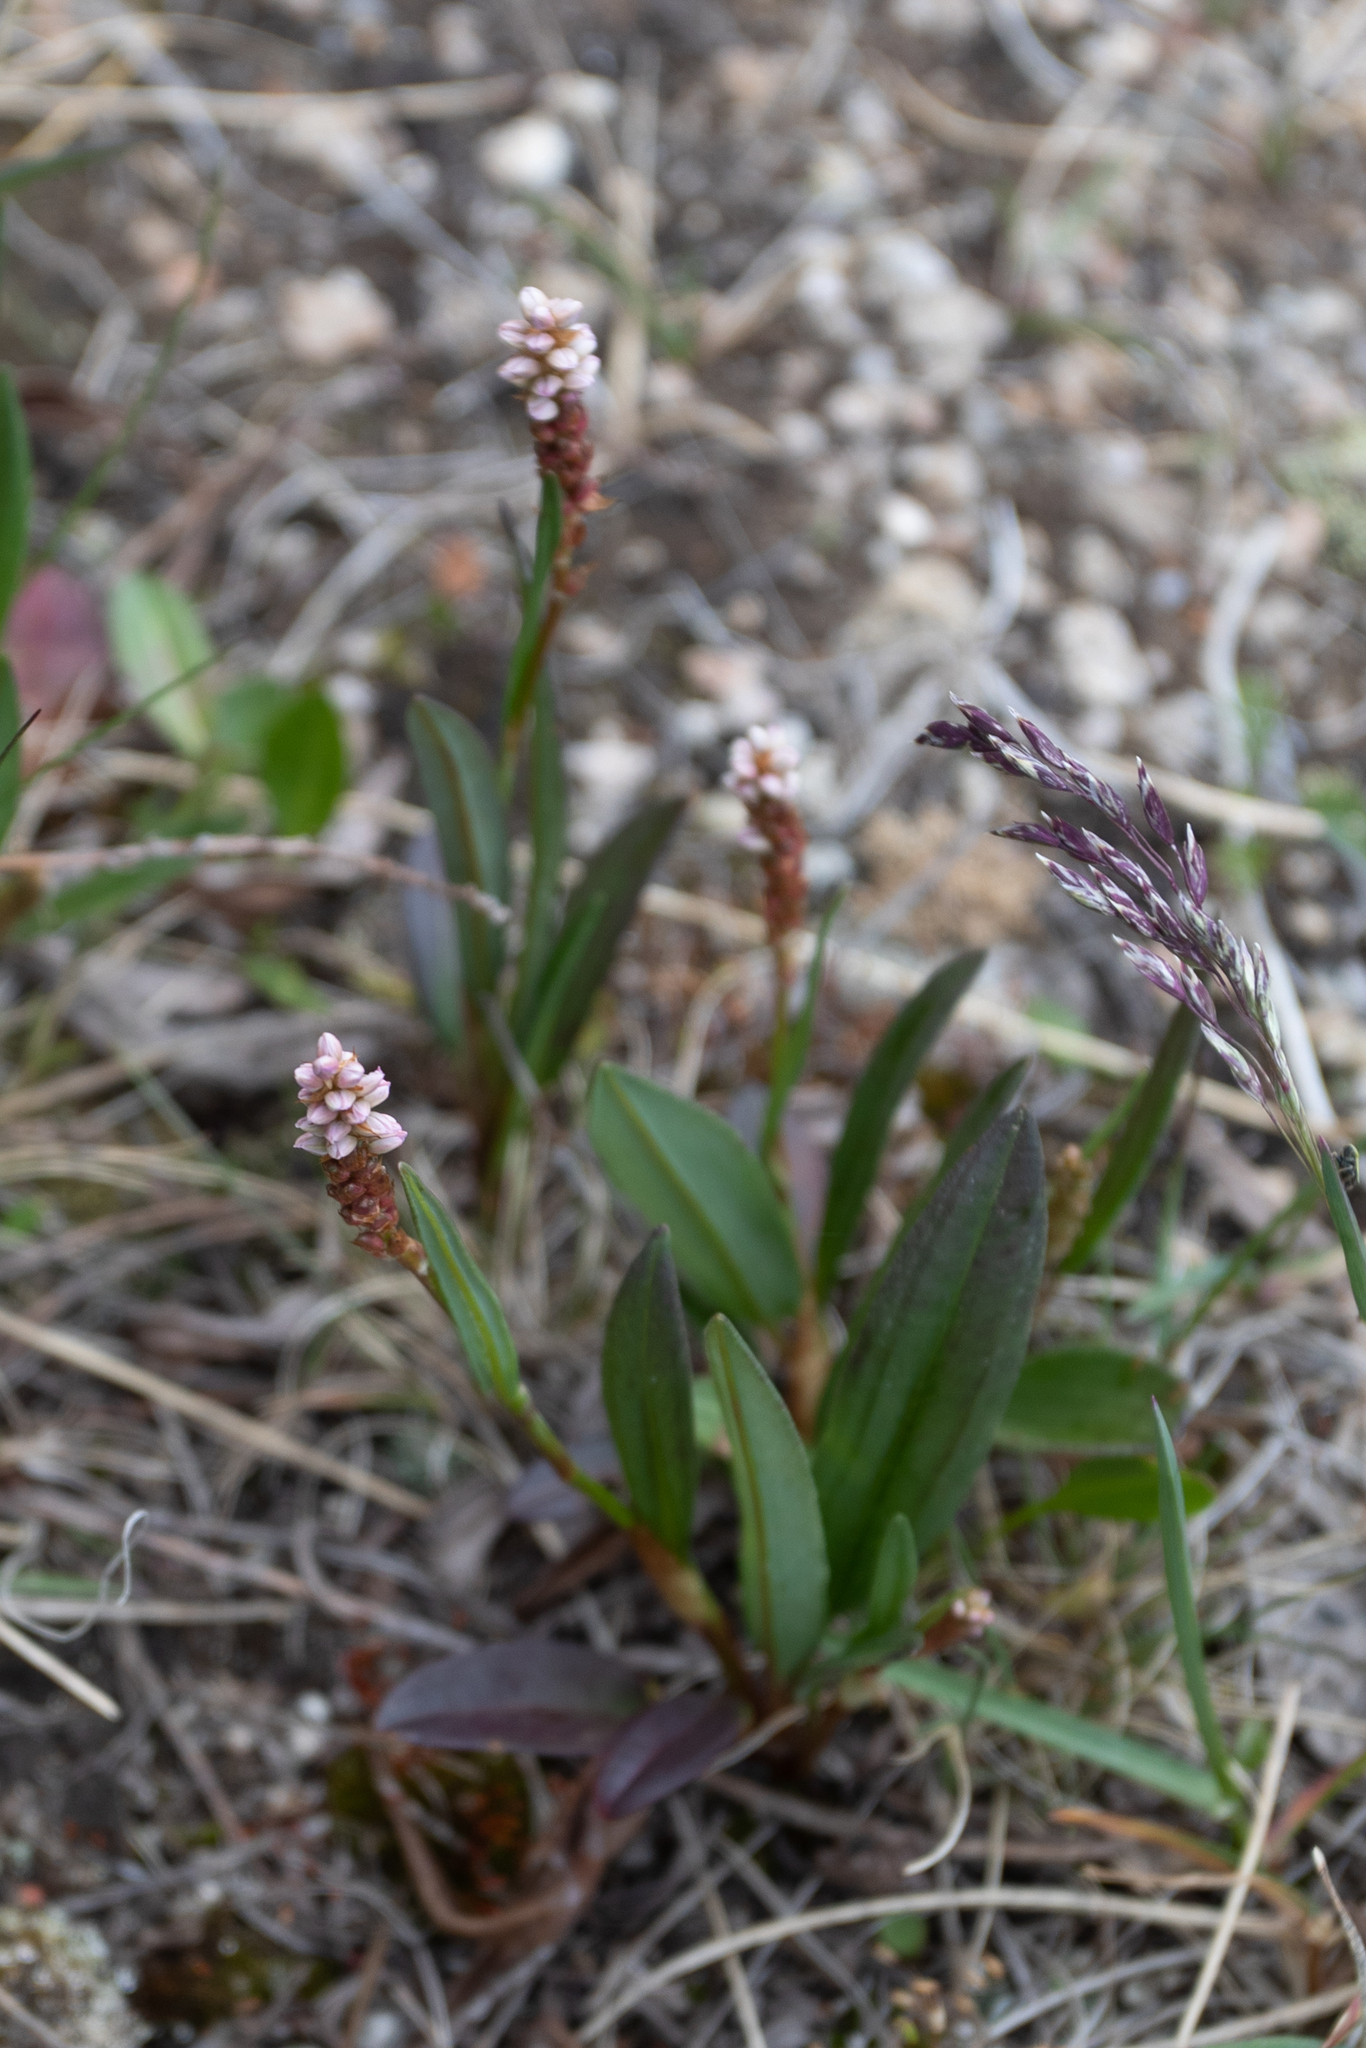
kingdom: Plantae
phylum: Tracheophyta
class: Magnoliopsida
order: Caryophyllales
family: Polygonaceae
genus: Bistorta
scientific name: Bistorta vivipara
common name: Alpine bistort
